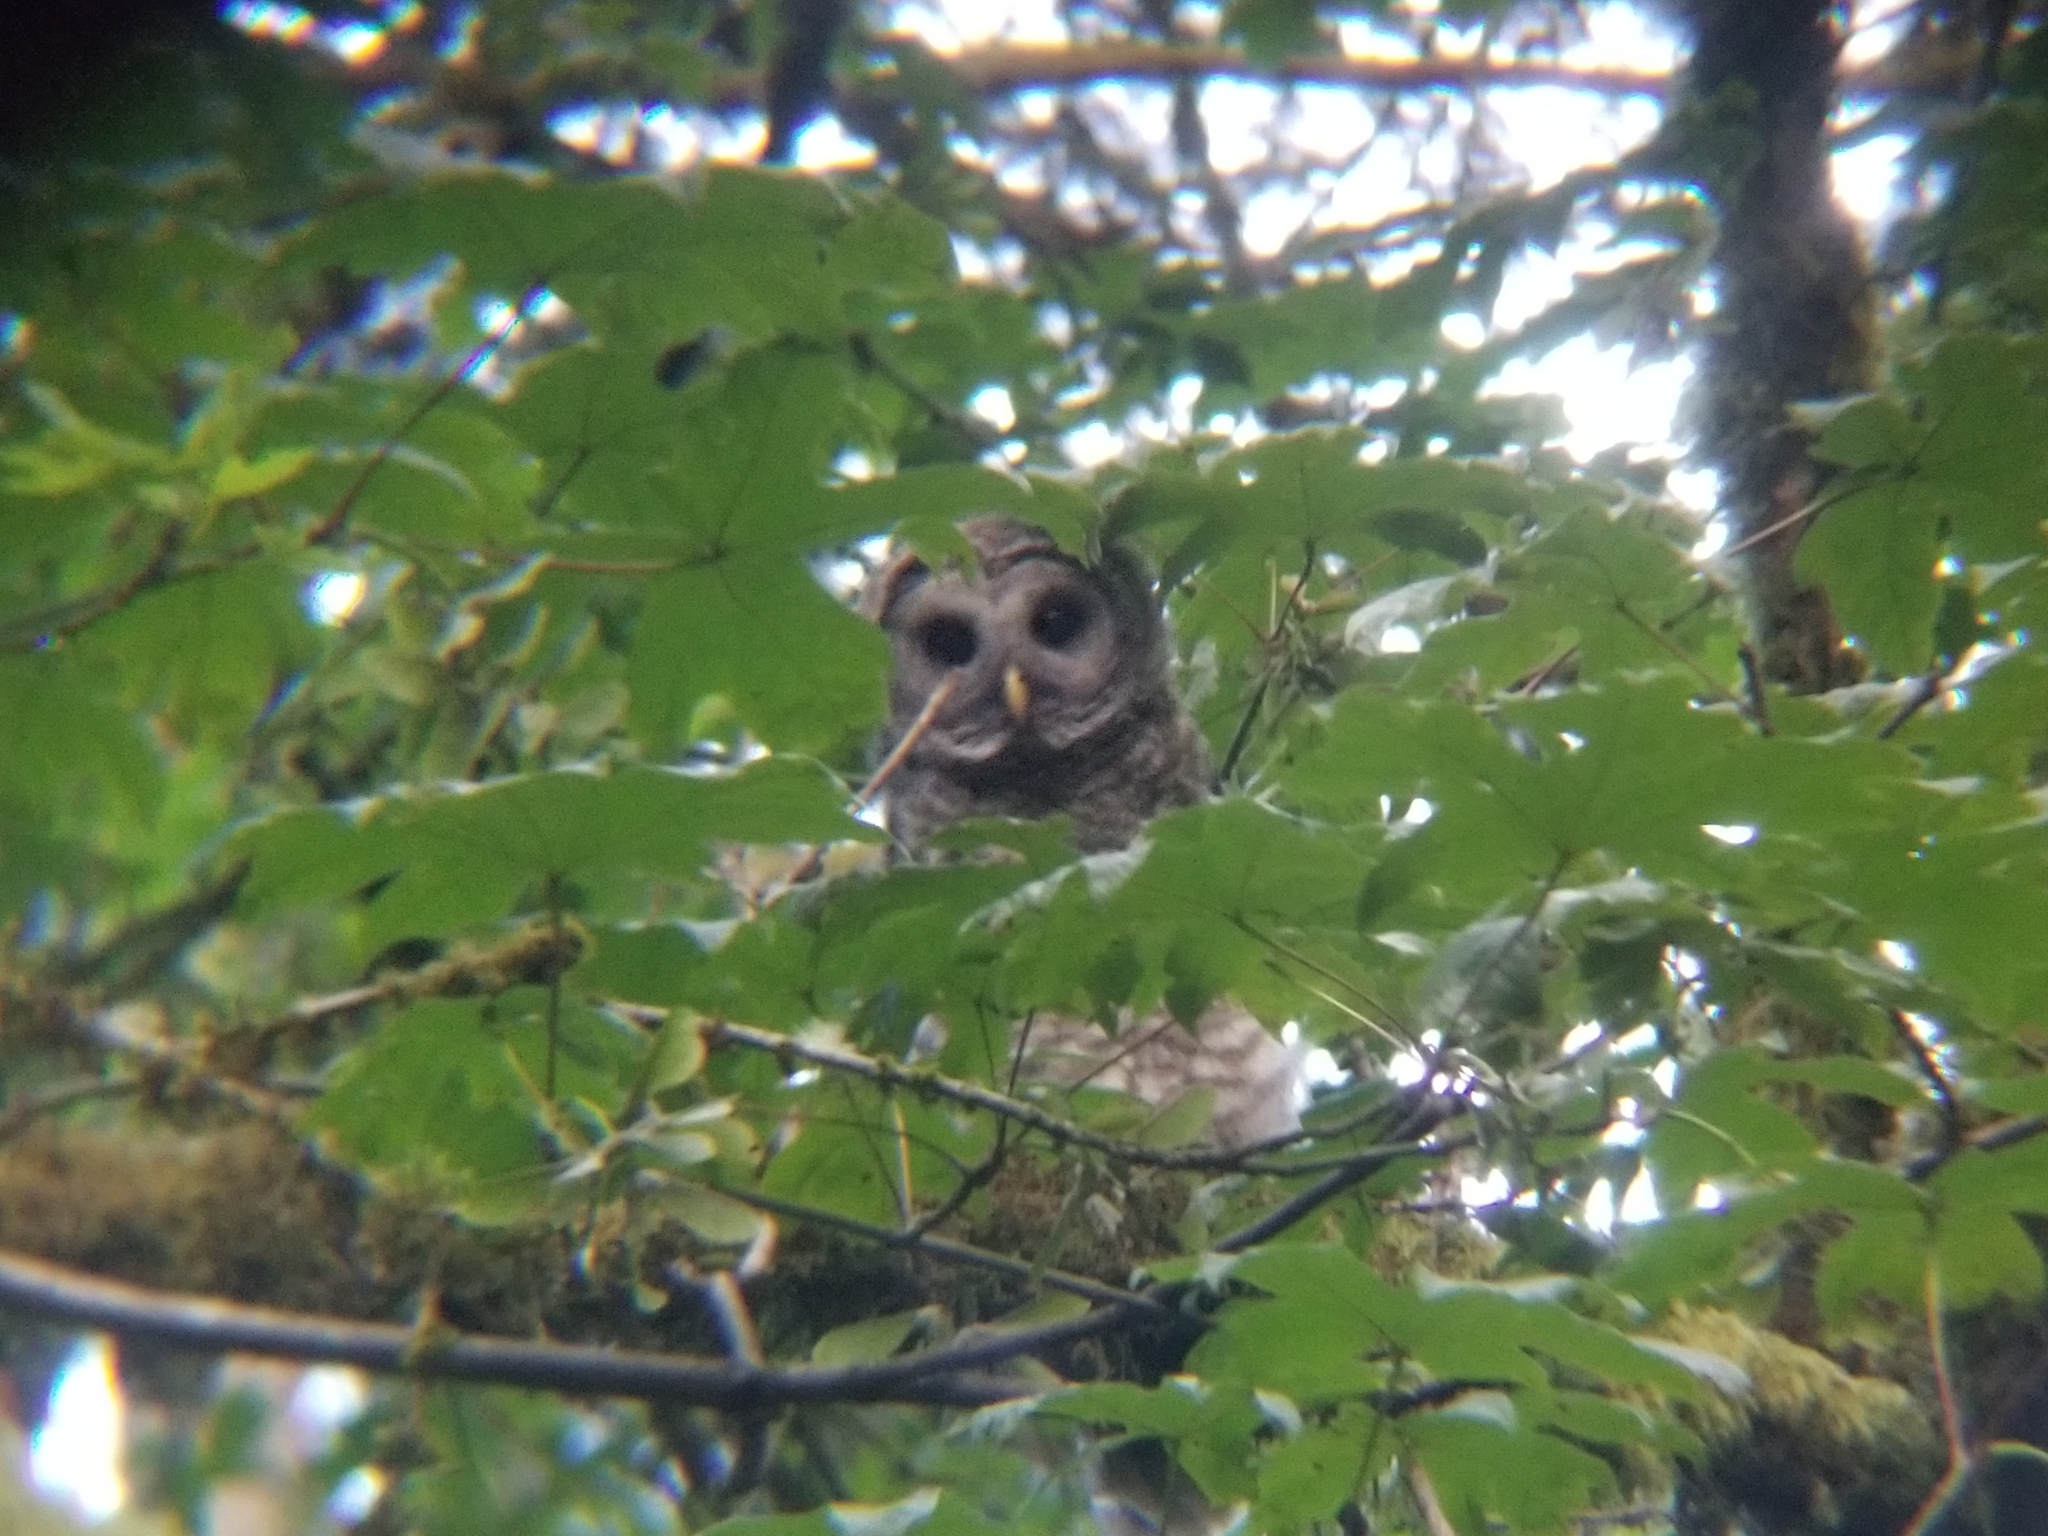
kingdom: Animalia
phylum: Chordata
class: Aves
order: Strigiformes
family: Strigidae
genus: Strix
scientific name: Strix varia
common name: Barred owl
